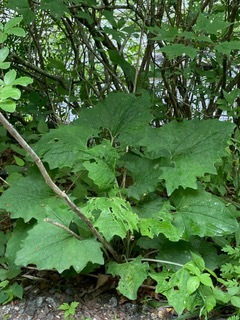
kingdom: Plantae
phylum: Tracheophyta
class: Magnoliopsida
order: Asterales
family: Asteraceae
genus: Arnoglossum
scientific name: Arnoglossum atriplicifolium
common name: Pale indian-plantain
